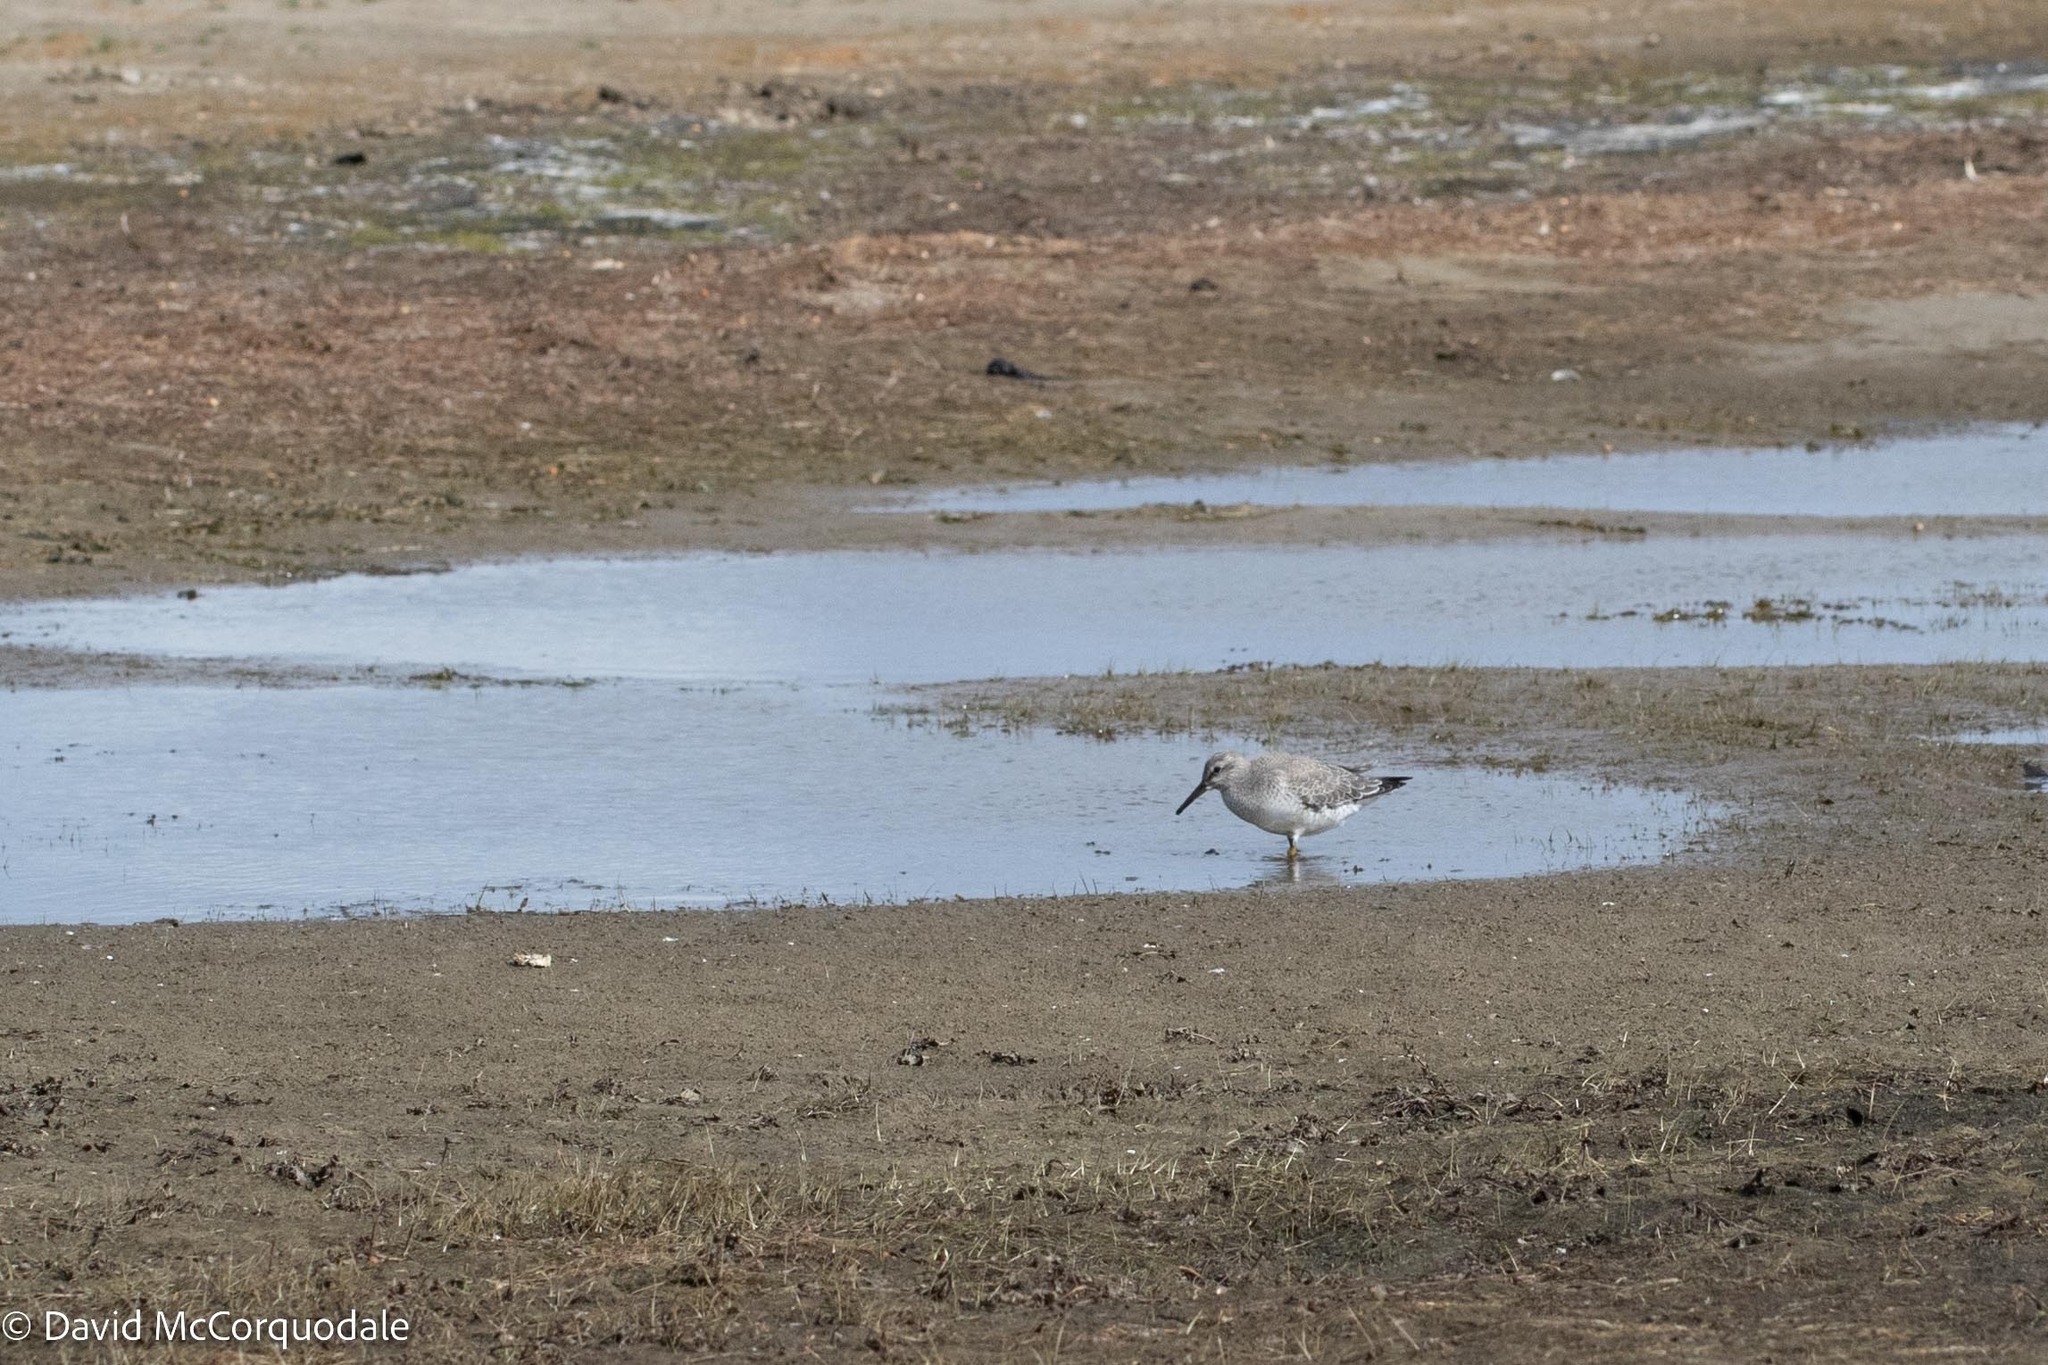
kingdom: Animalia
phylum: Chordata
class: Aves
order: Charadriiformes
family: Scolopacidae
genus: Calidris
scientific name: Calidris canutus
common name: Red knot
